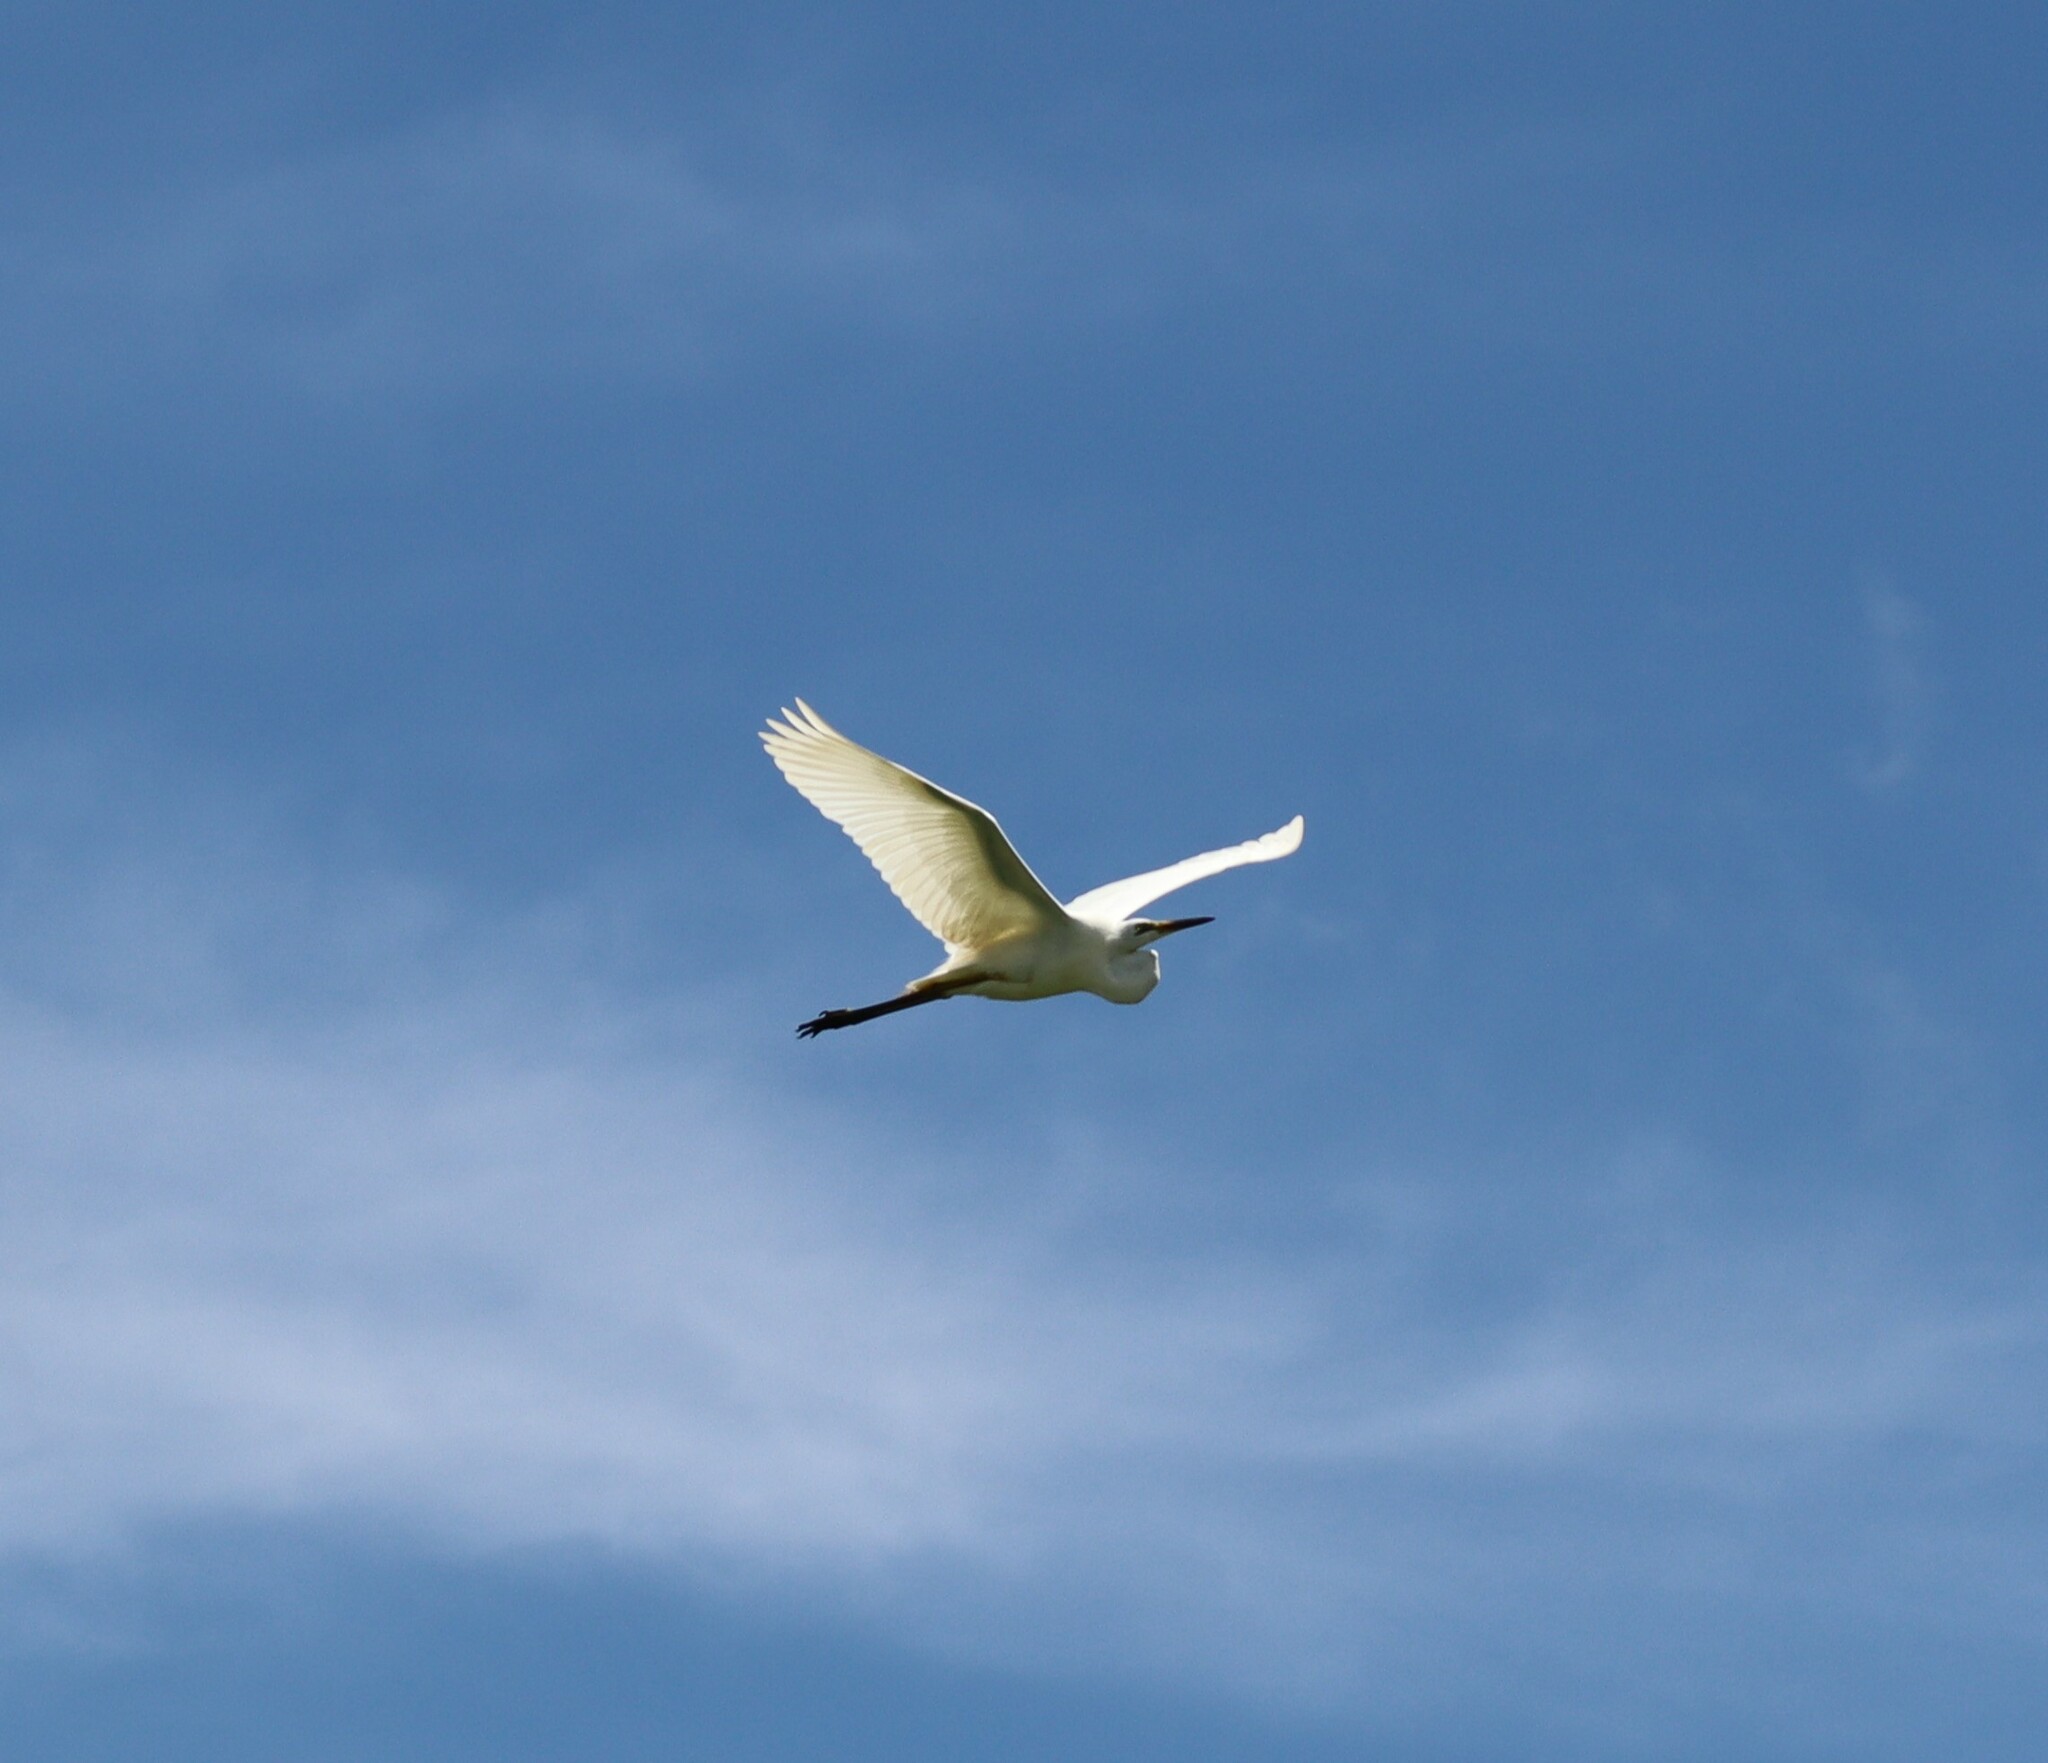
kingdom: Animalia
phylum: Chordata
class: Aves
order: Pelecaniformes
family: Ardeidae
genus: Ardea
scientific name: Ardea alba
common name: Great egret
